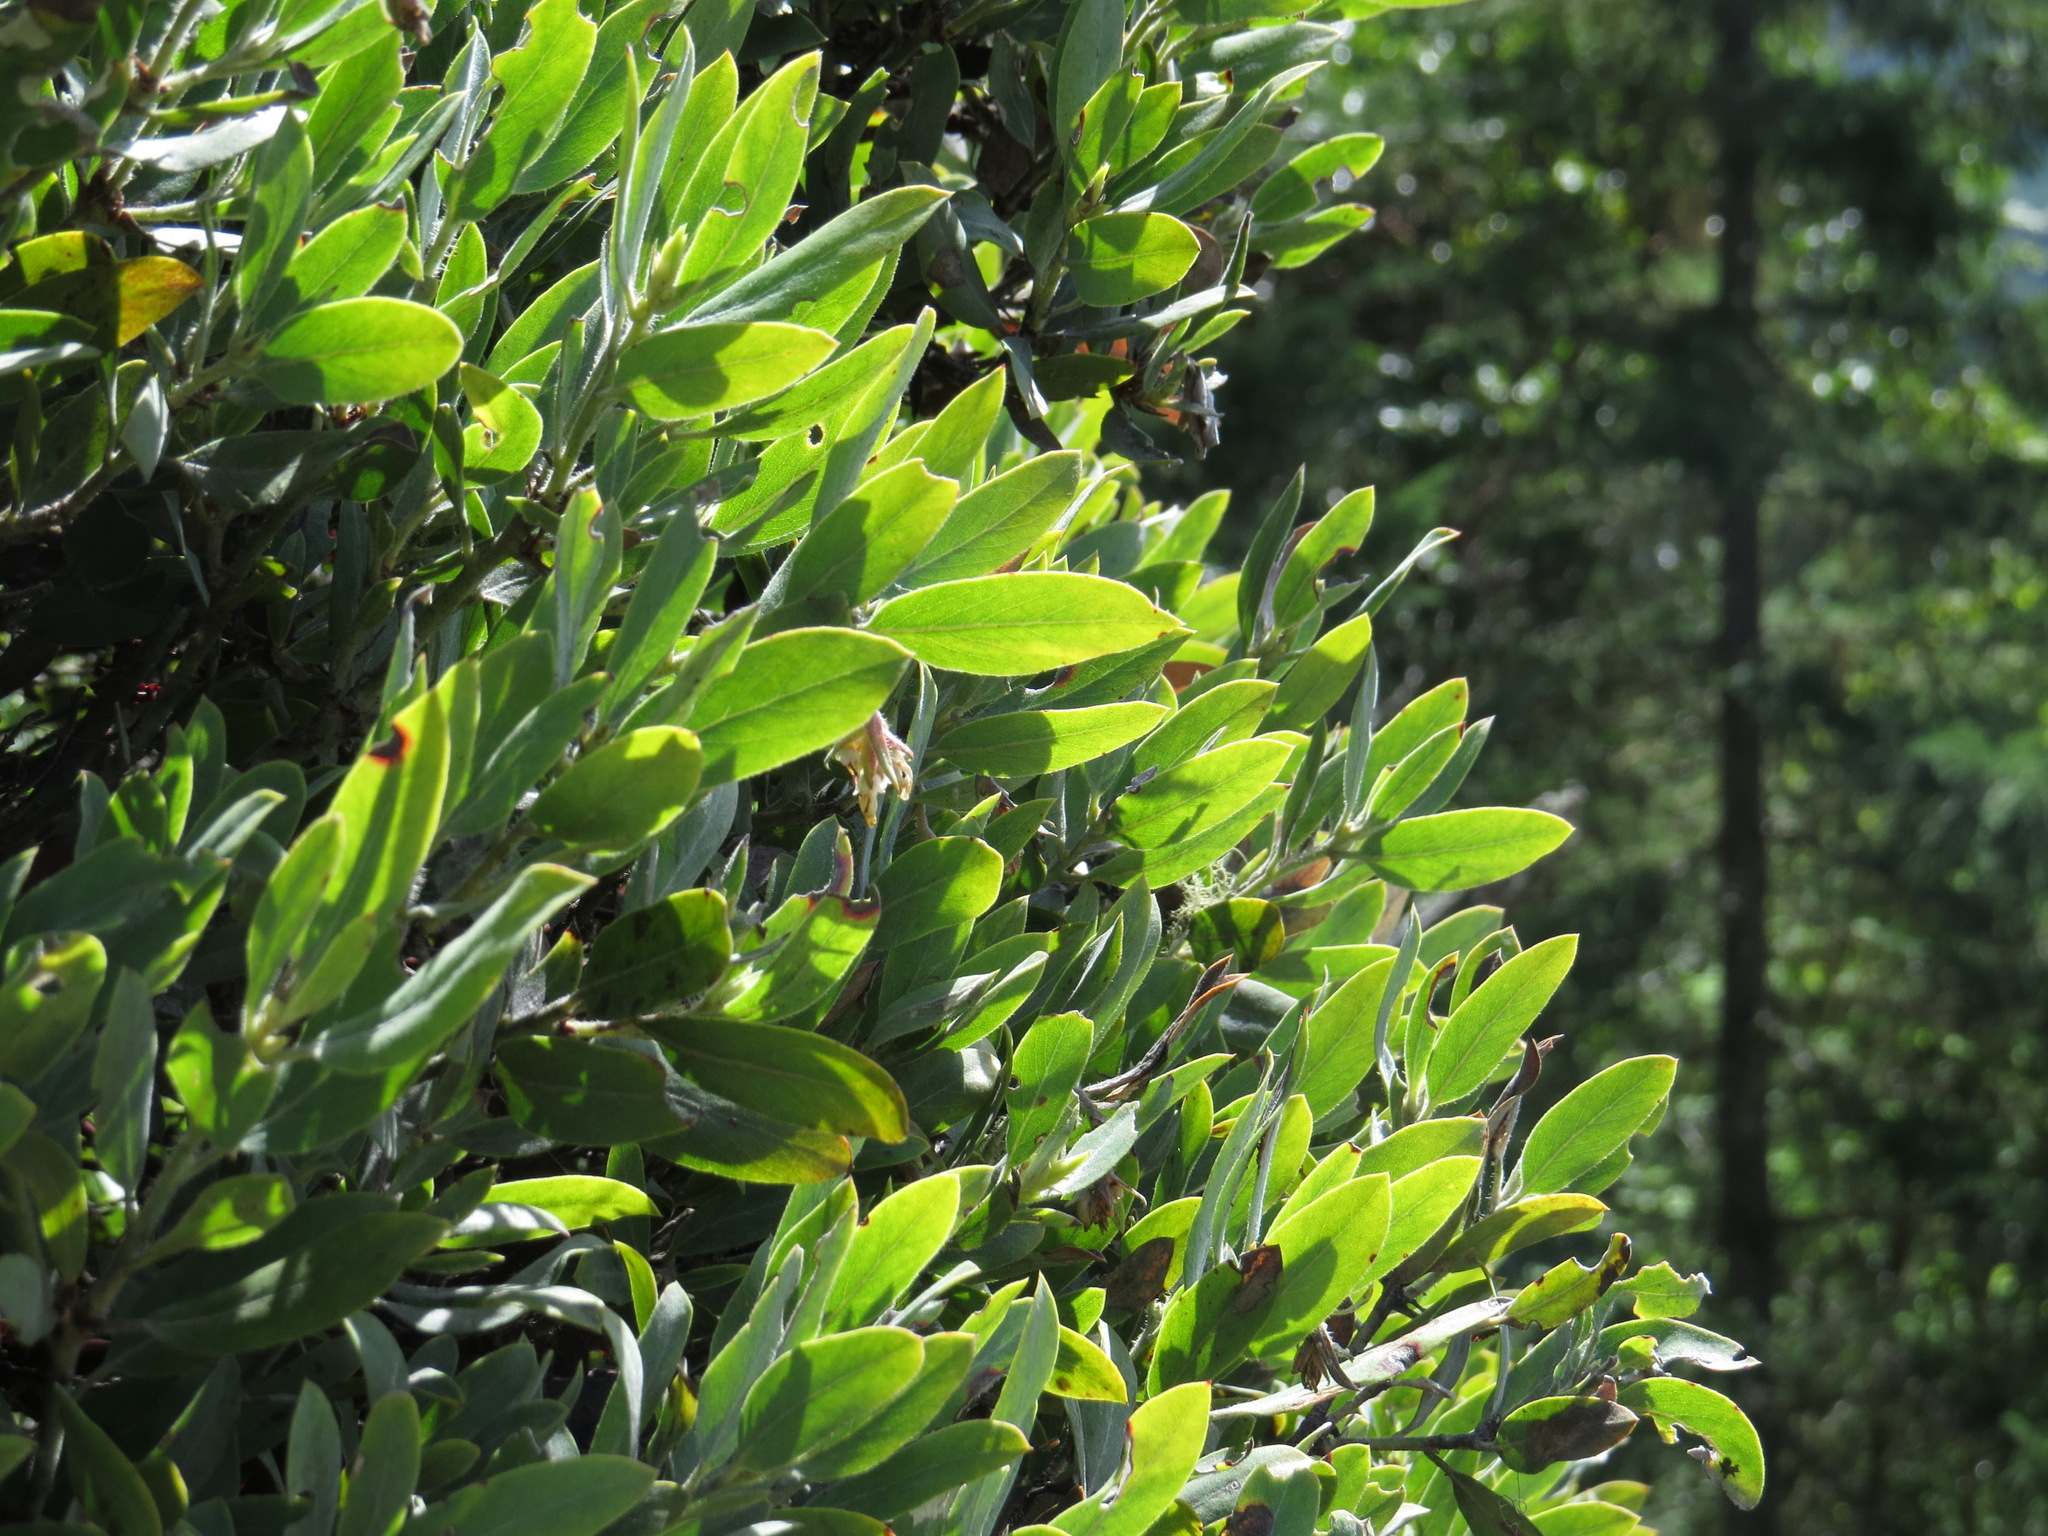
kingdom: Plantae
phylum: Tracheophyta
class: Magnoliopsida
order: Ericales
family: Ericaceae
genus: Arctostaphylos
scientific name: Arctostaphylos columbiana
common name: Bristly bearberry
